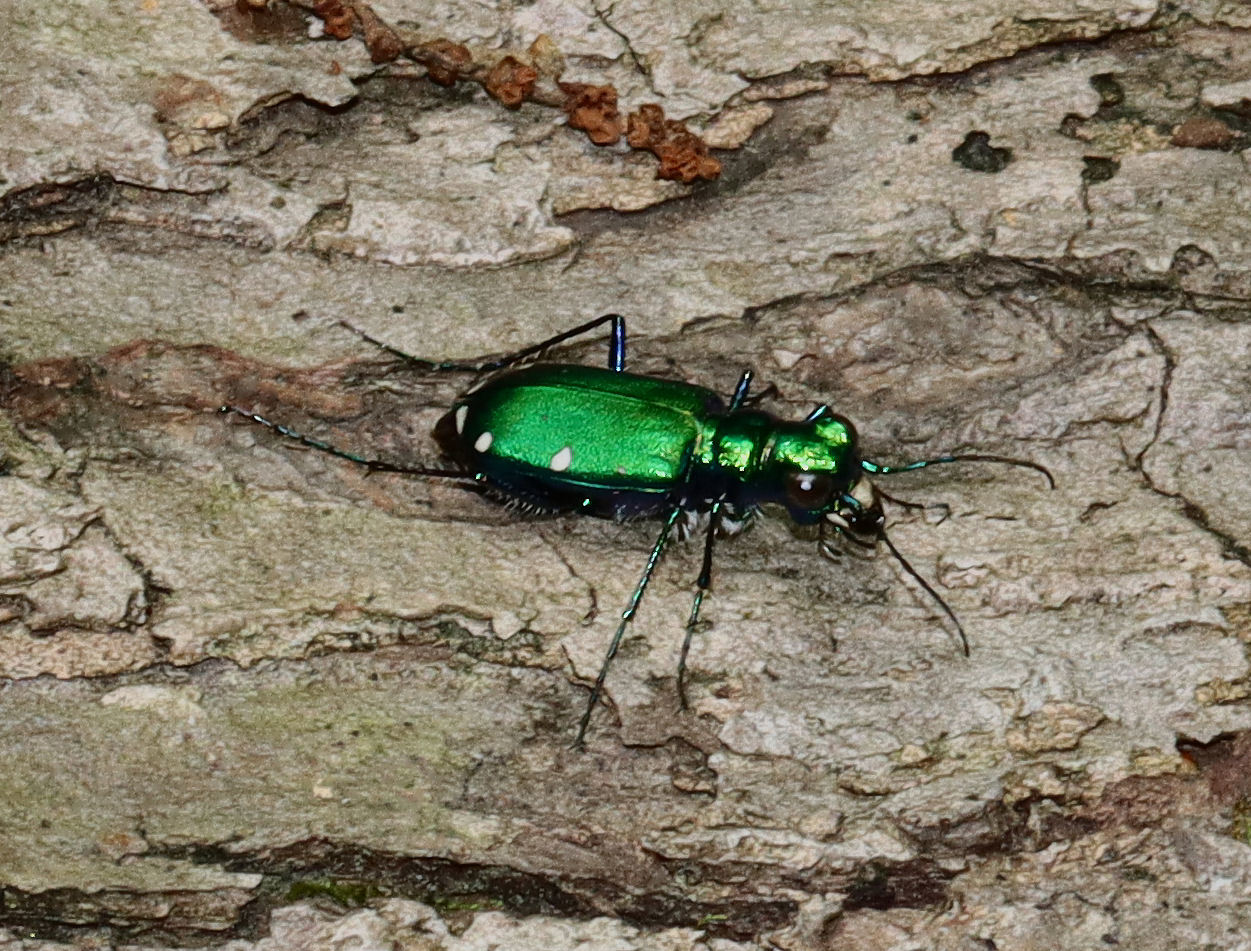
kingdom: Animalia
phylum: Arthropoda
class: Insecta
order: Coleoptera
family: Carabidae
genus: Cicindela
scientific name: Cicindela sexguttata
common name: Six-spotted tiger beetle
